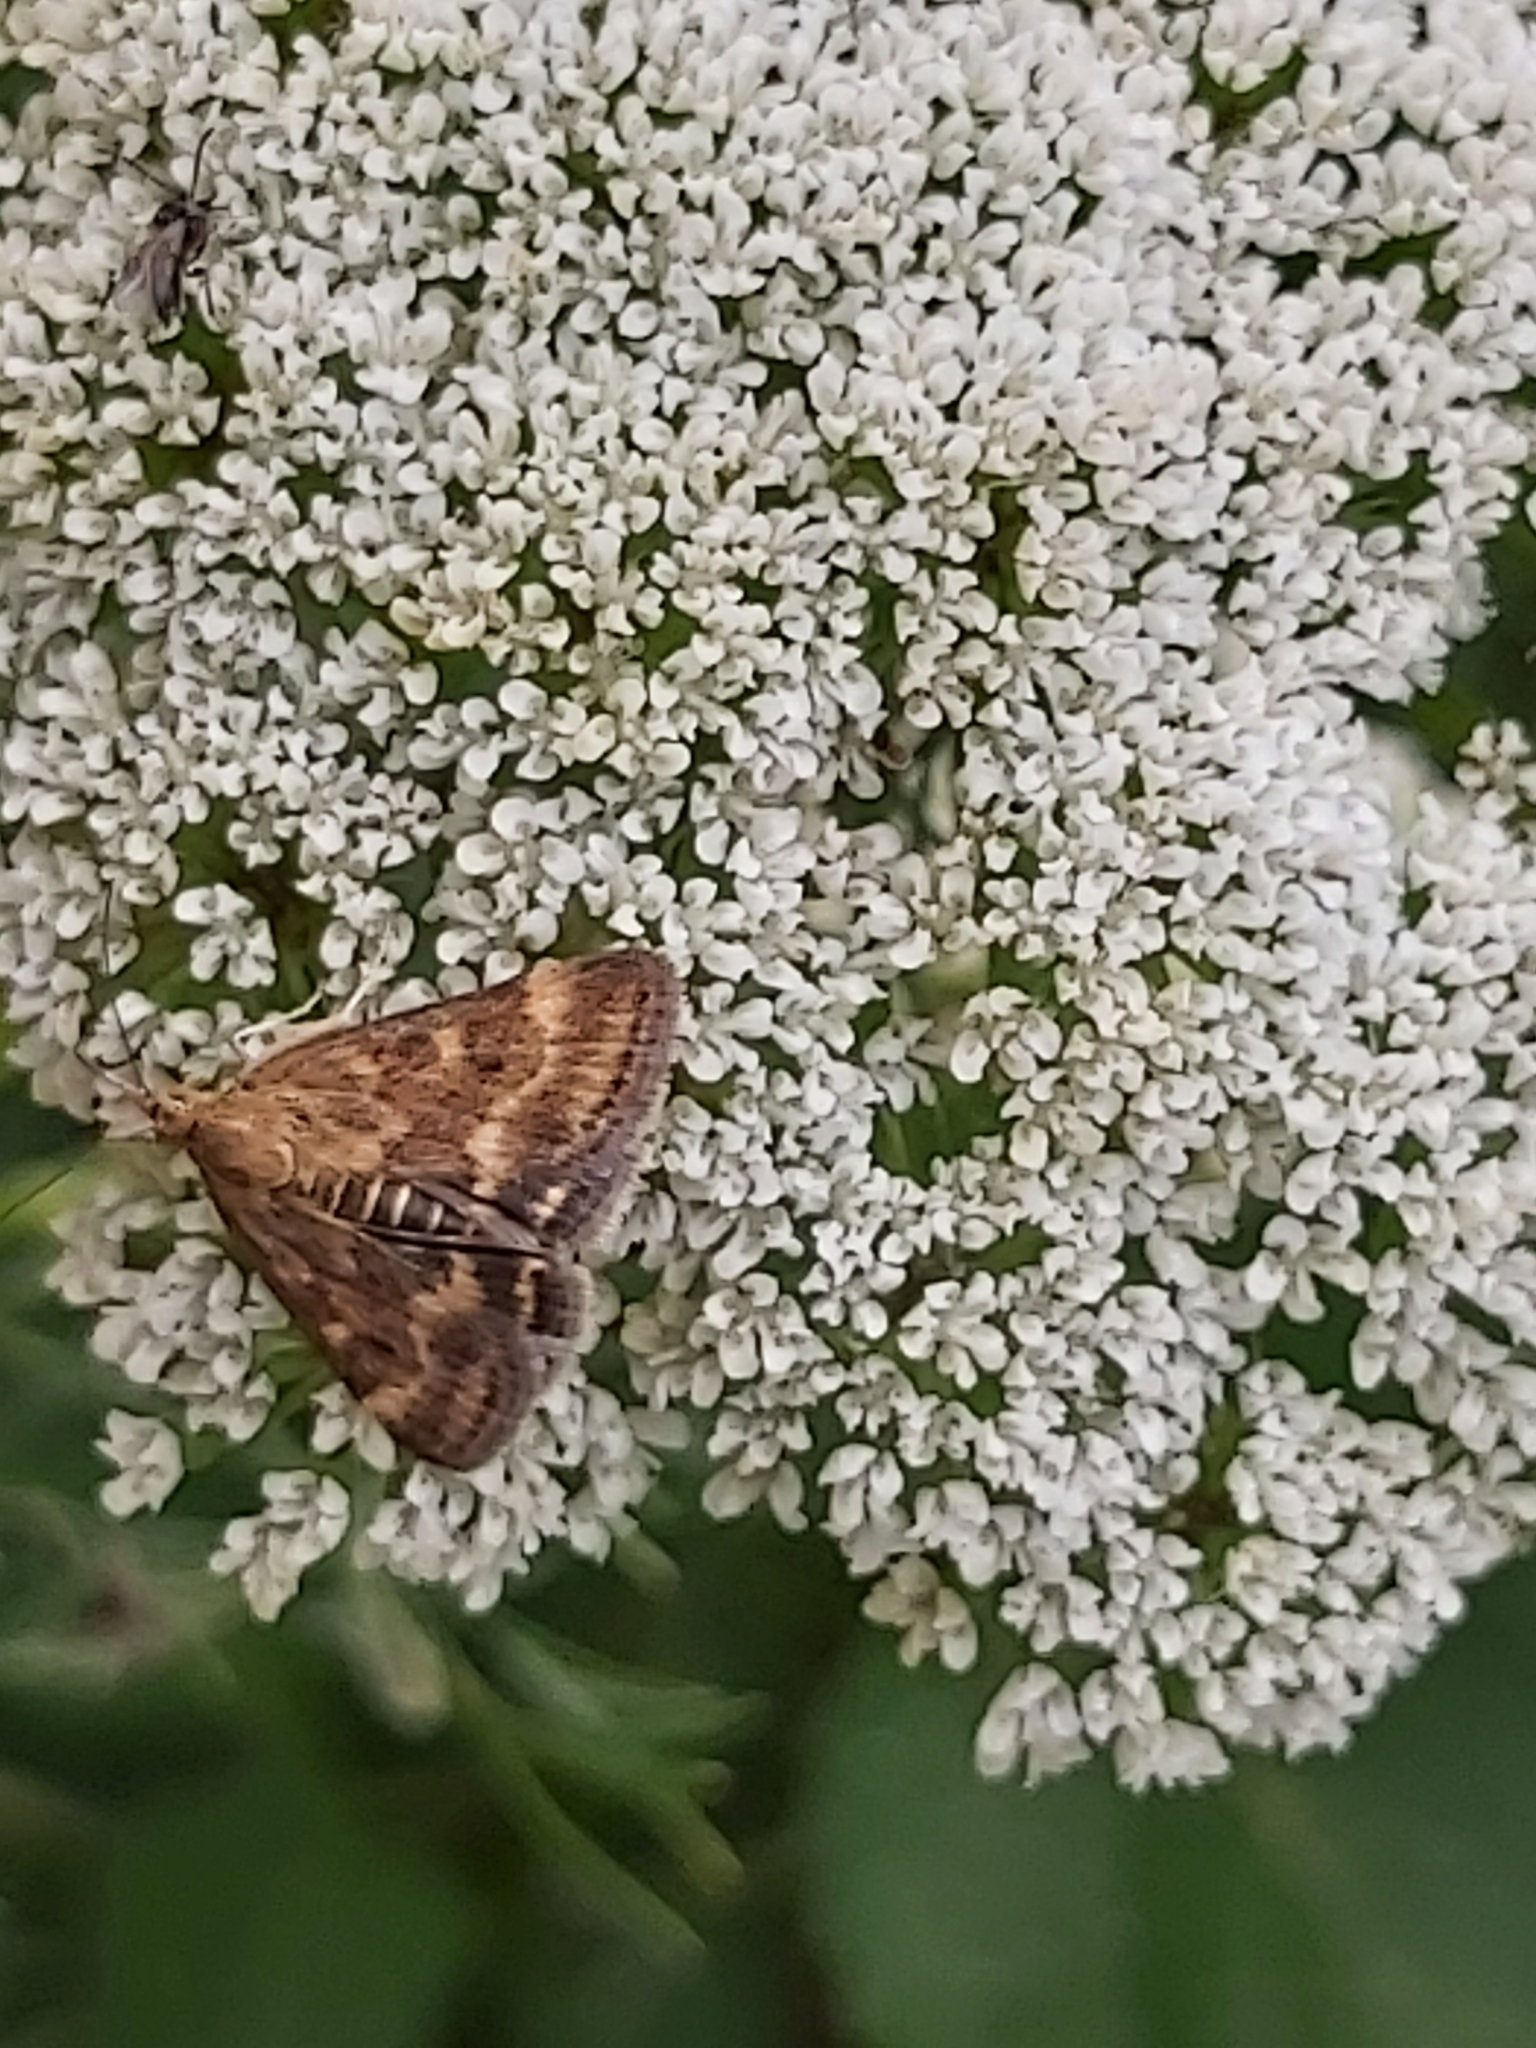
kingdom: Animalia
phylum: Arthropoda
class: Insecta
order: Lepidoptera
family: Crambidae
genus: Pyrausta
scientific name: Pyrausta despicata
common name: Straw-barred pearl
